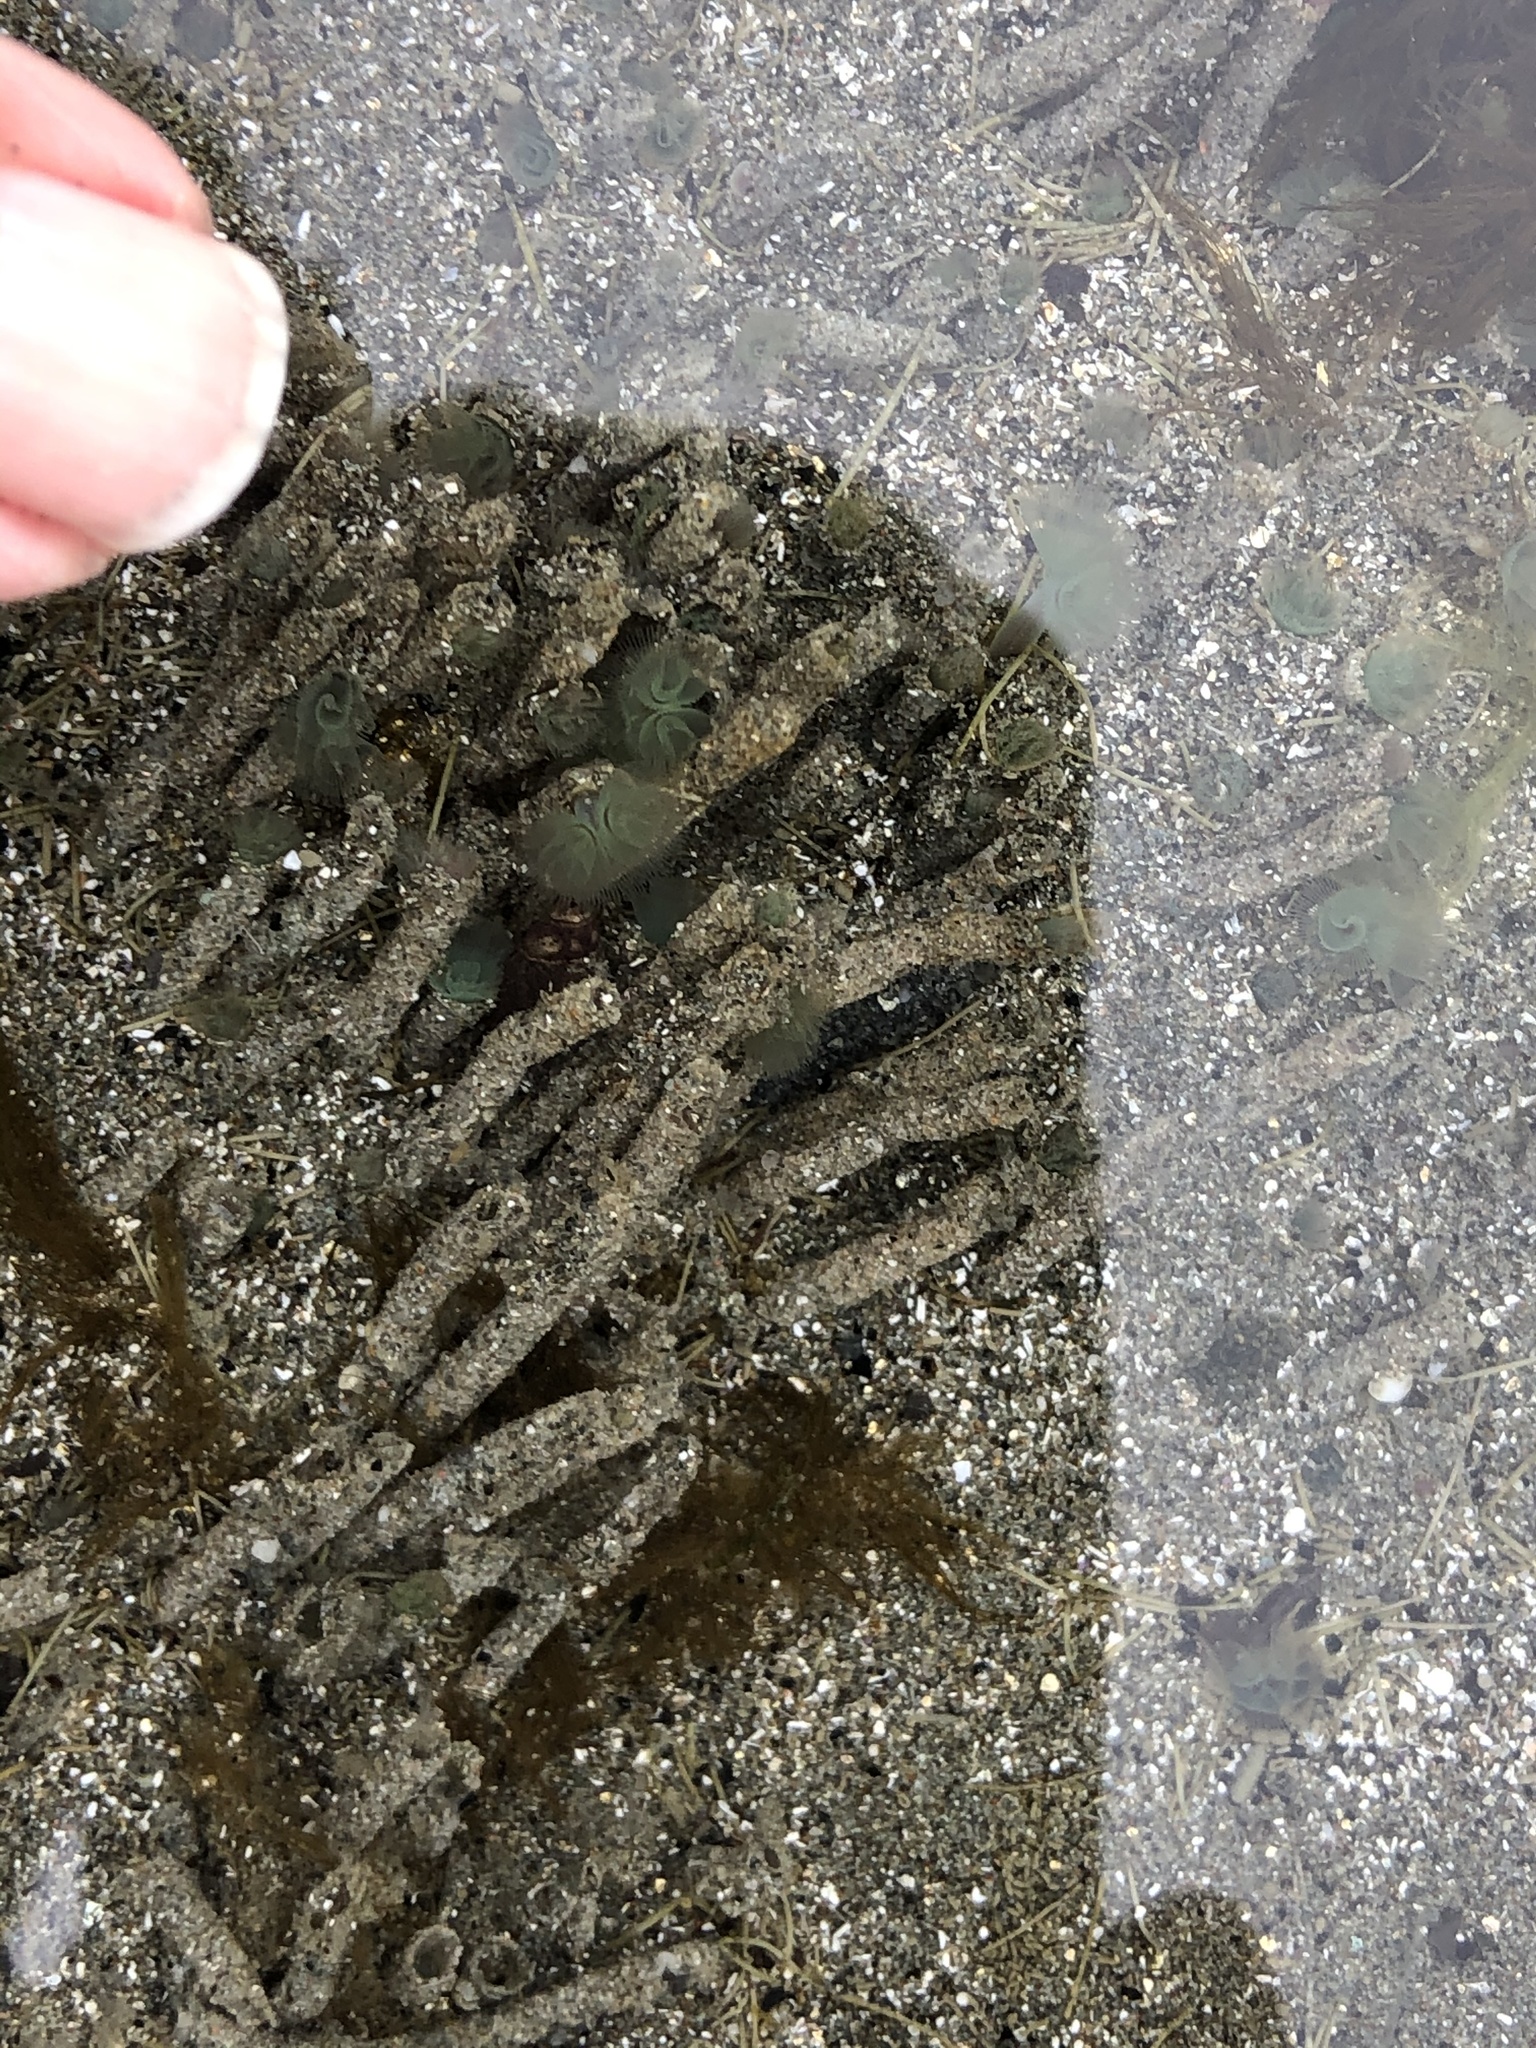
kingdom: Animalia
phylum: Phoronida
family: Phoronidae
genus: Phoronopsis
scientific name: Phoronopsis harmeri
